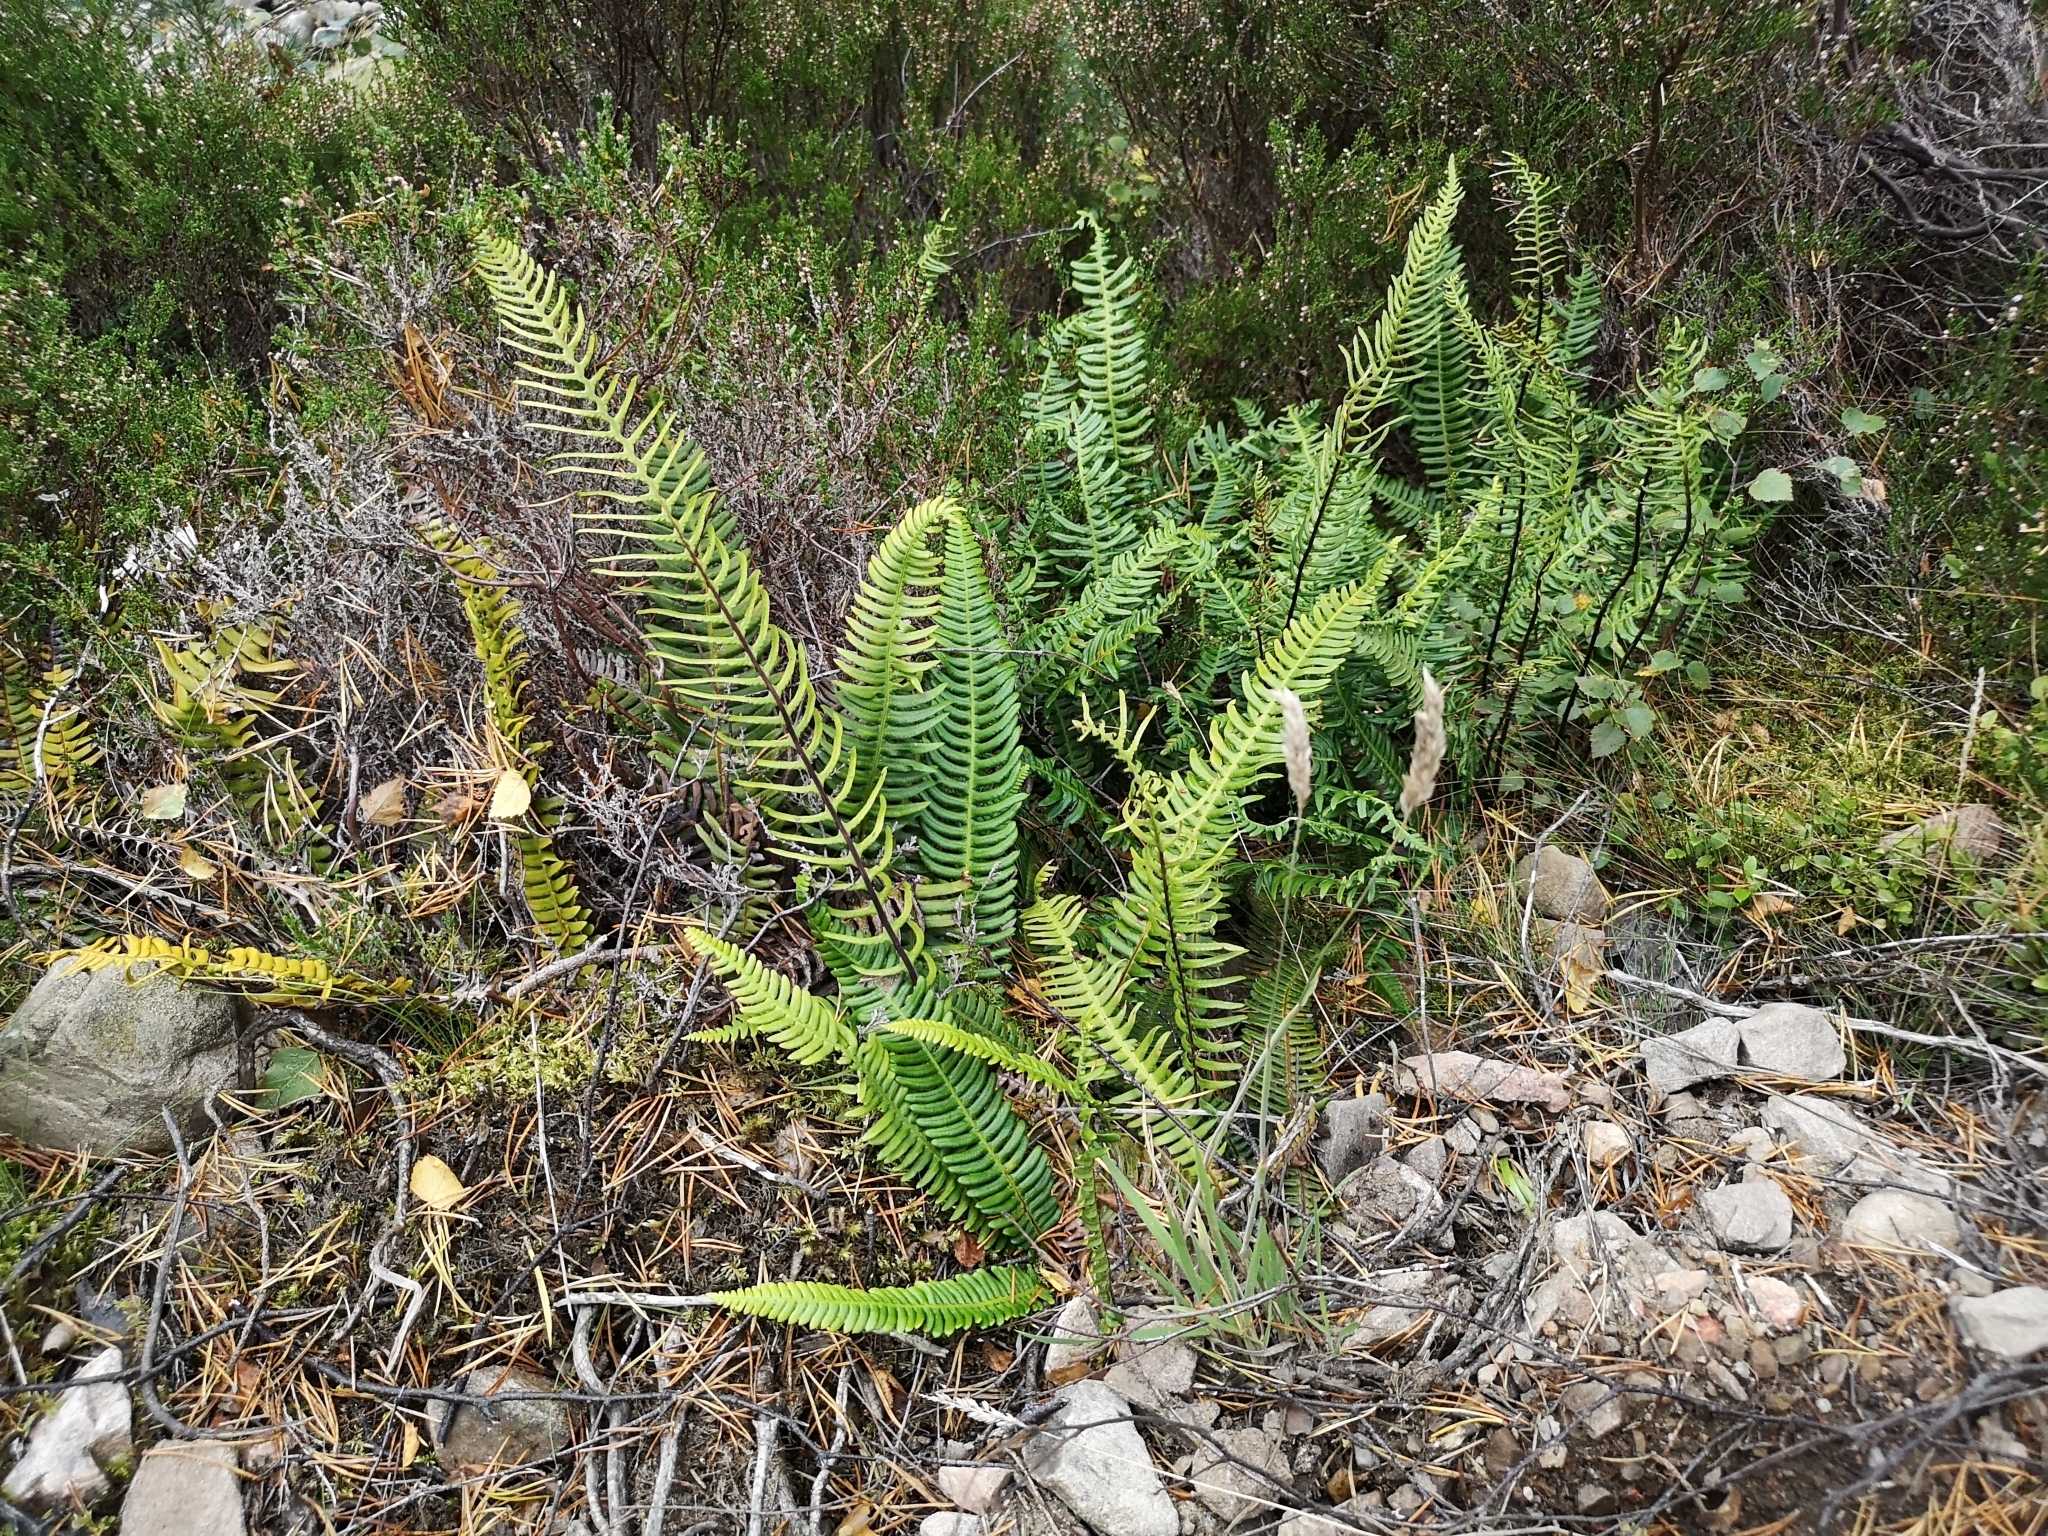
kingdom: Plantae
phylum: Tracheophyta
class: Polypodiopsida
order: Polypodiales
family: Blechnaceae
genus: Struthiopteris
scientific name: Struthiopteris spicant
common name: Deer fern
